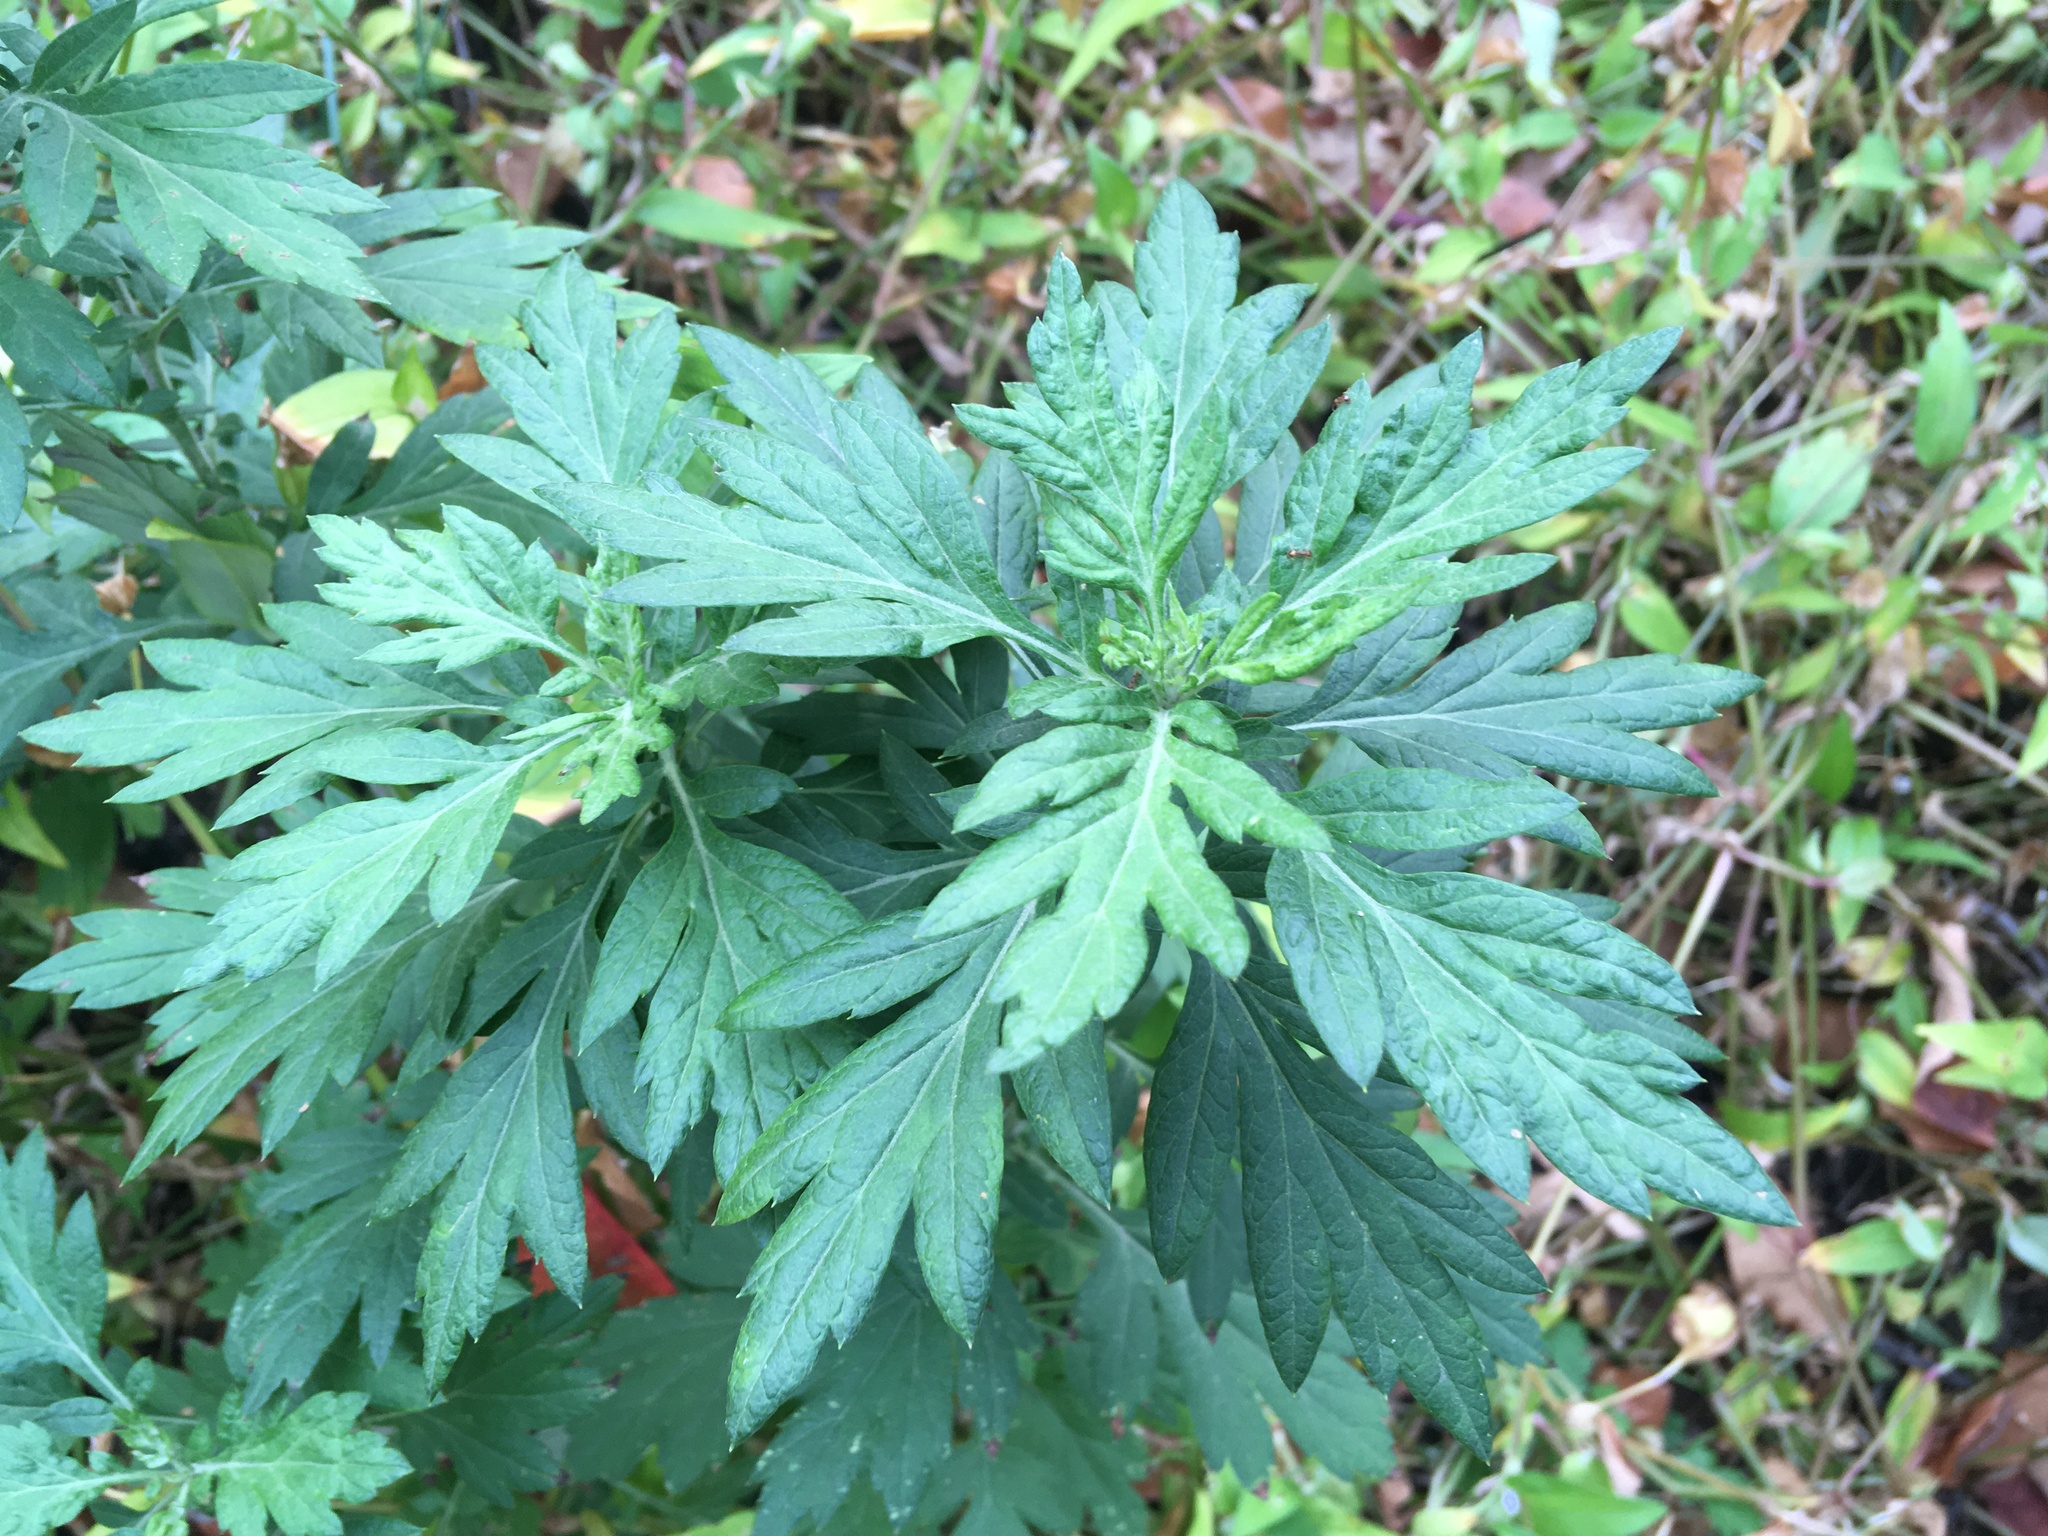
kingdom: Plantae
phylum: Tracheophyta
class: Magnoliopsida
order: Asterales
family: Asteraceae
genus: Artemisia
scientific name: Artemisia vulgaris
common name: Mugwort
